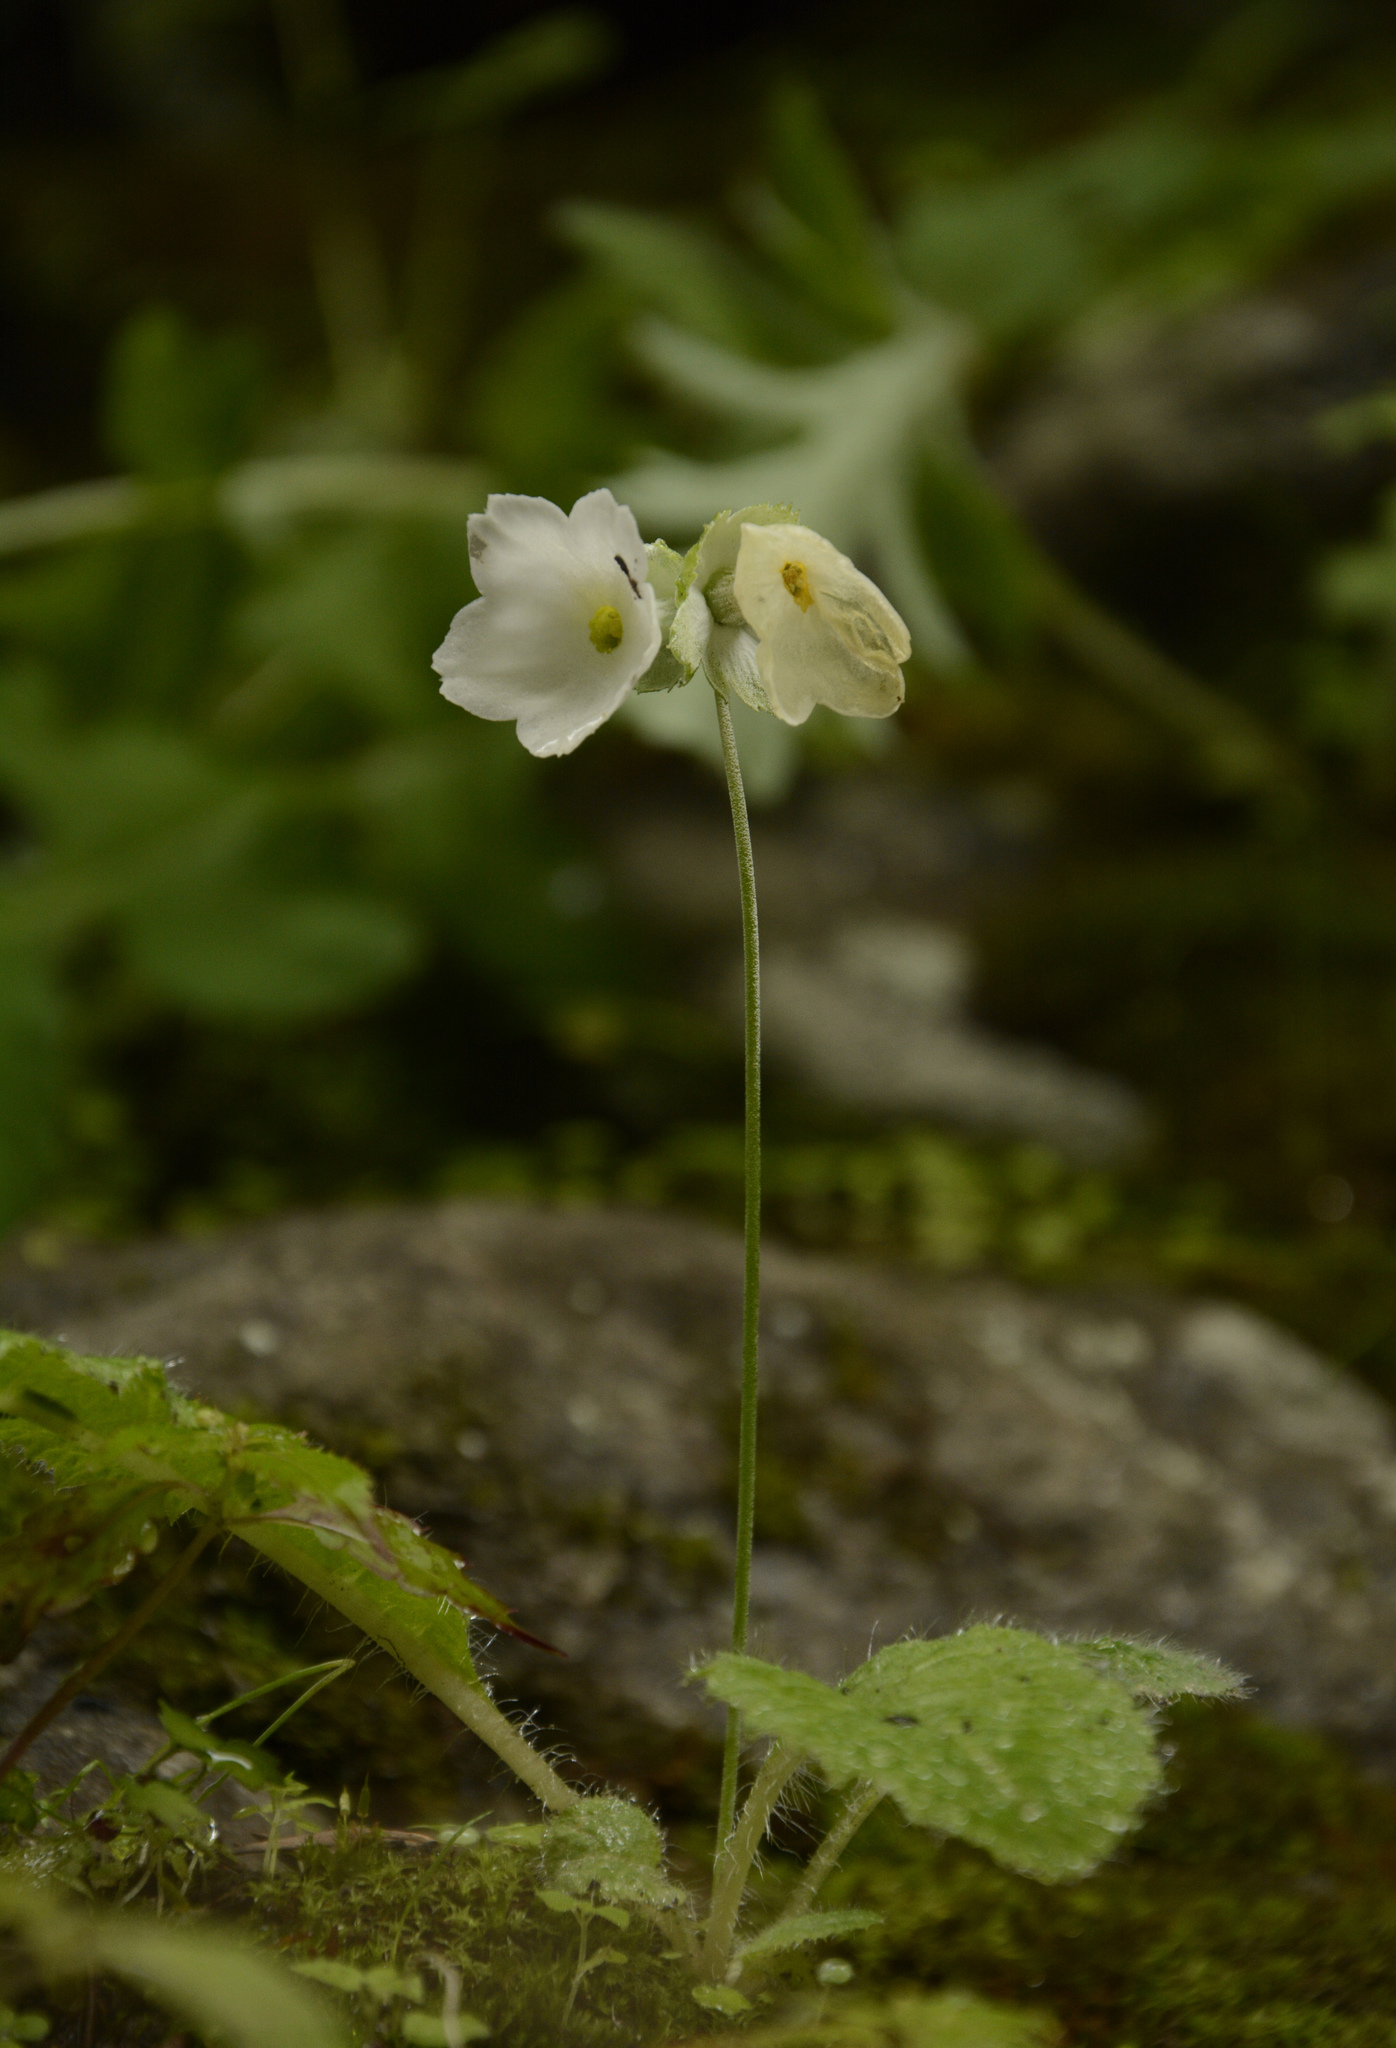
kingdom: Plantae
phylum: Tracheophyta
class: Magnoliopsida
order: Ericales
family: Primulaceae
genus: Primula
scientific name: Primula reidii
